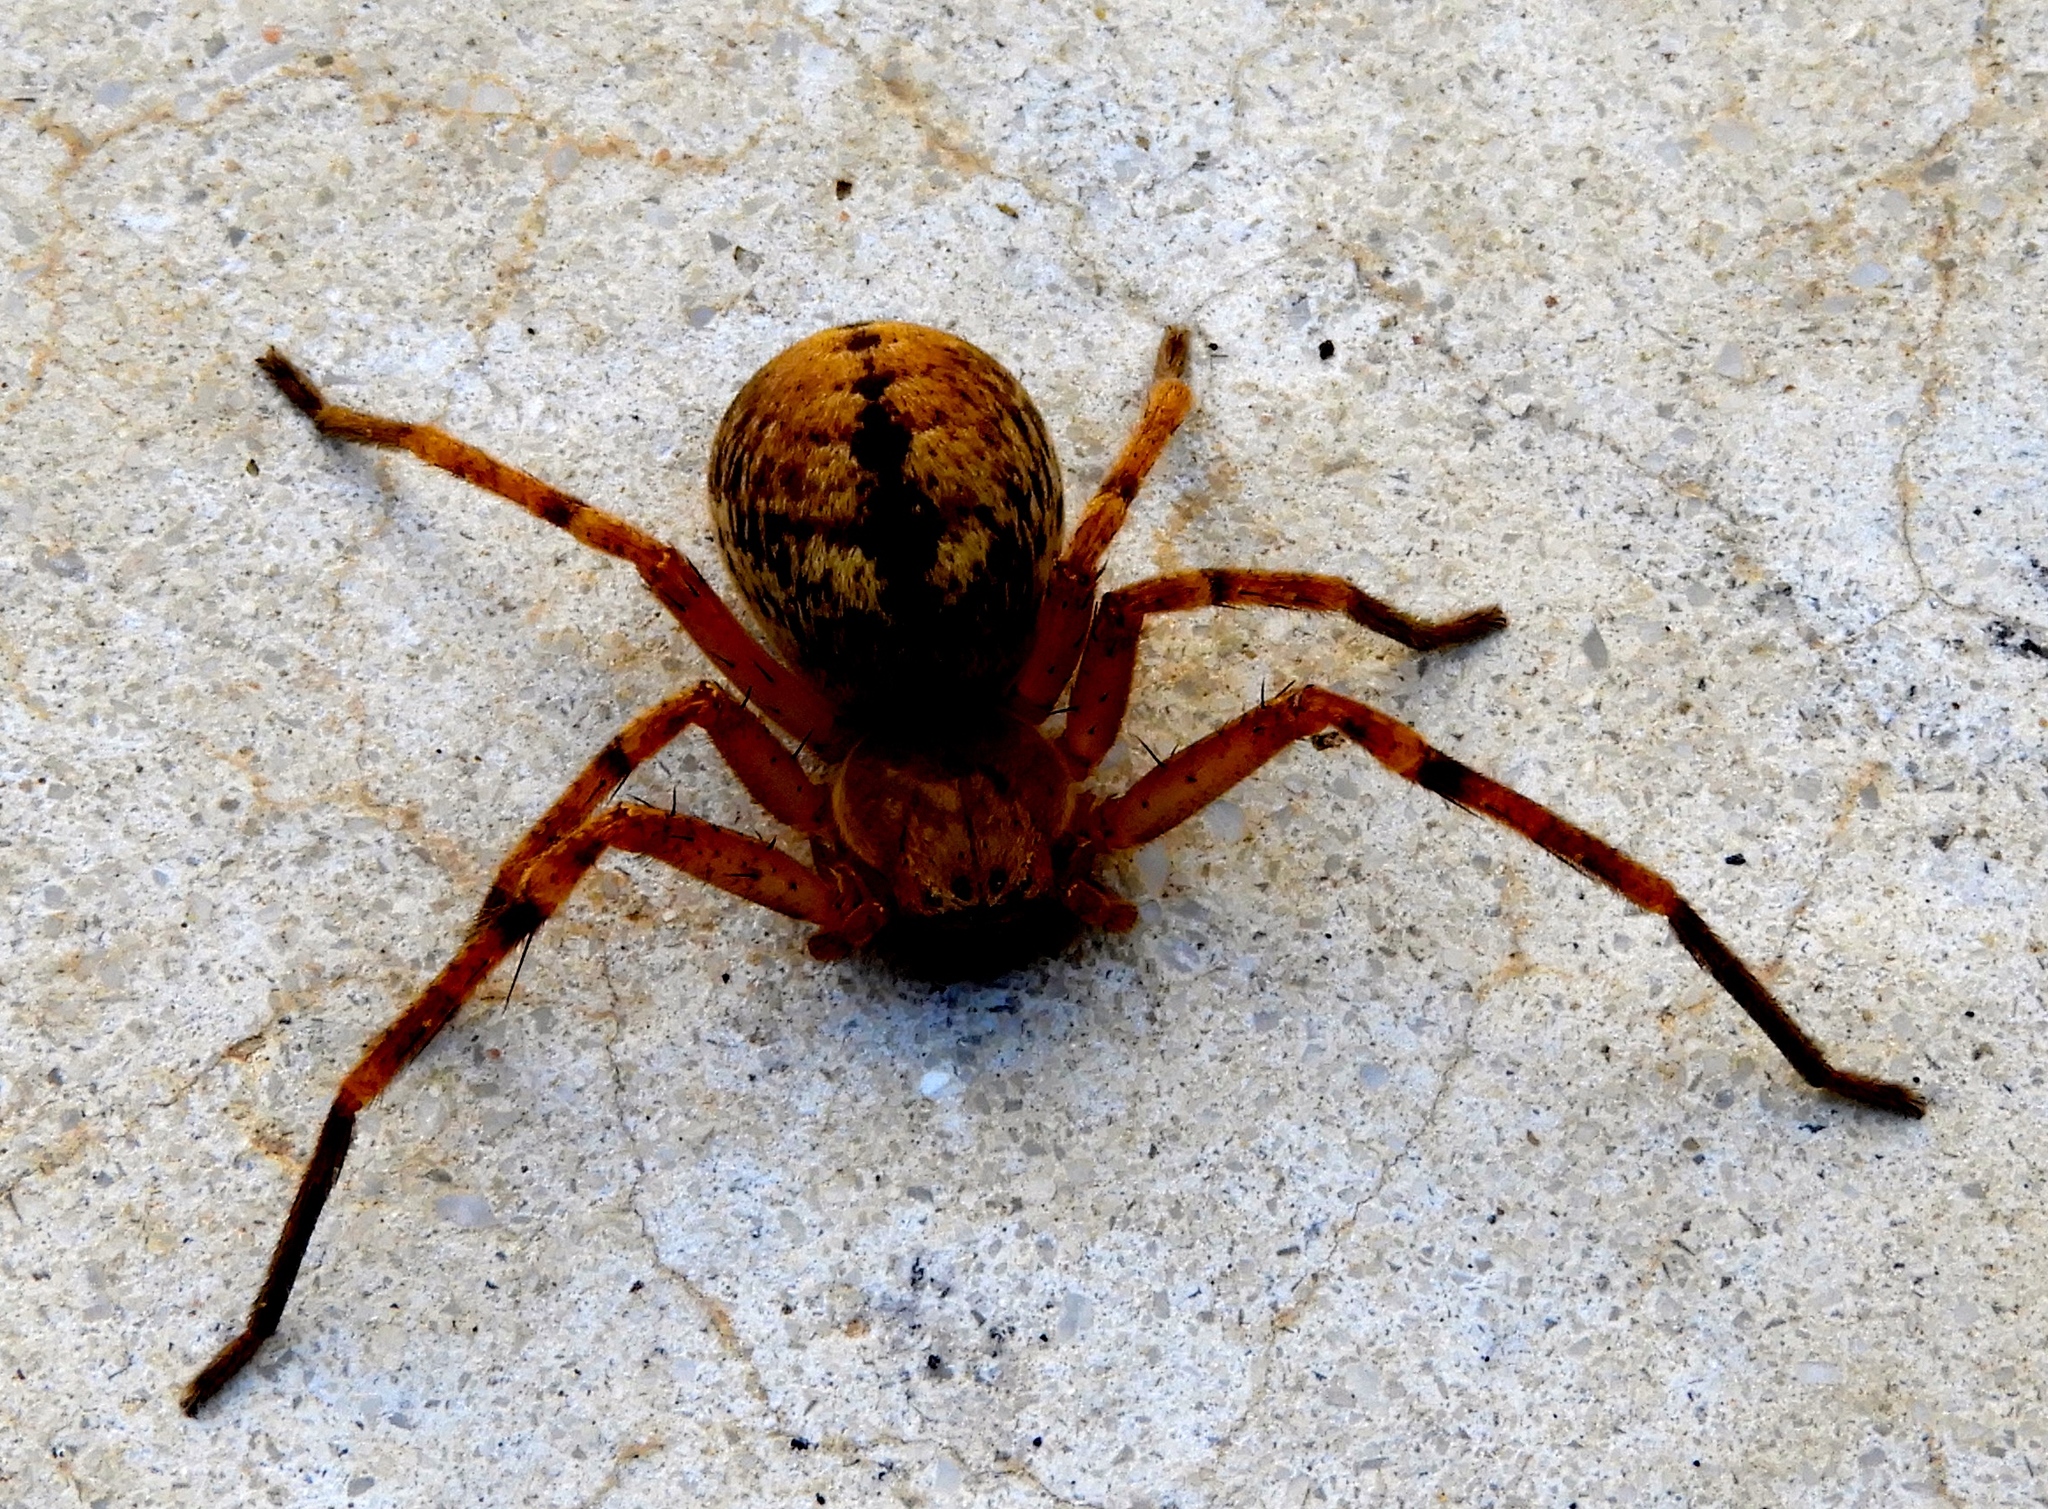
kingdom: Animalia
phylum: Arthropoda
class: Arachnida
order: Araneae
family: Sparassidae
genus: Curicaberis
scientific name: Curicaberis culiacan
